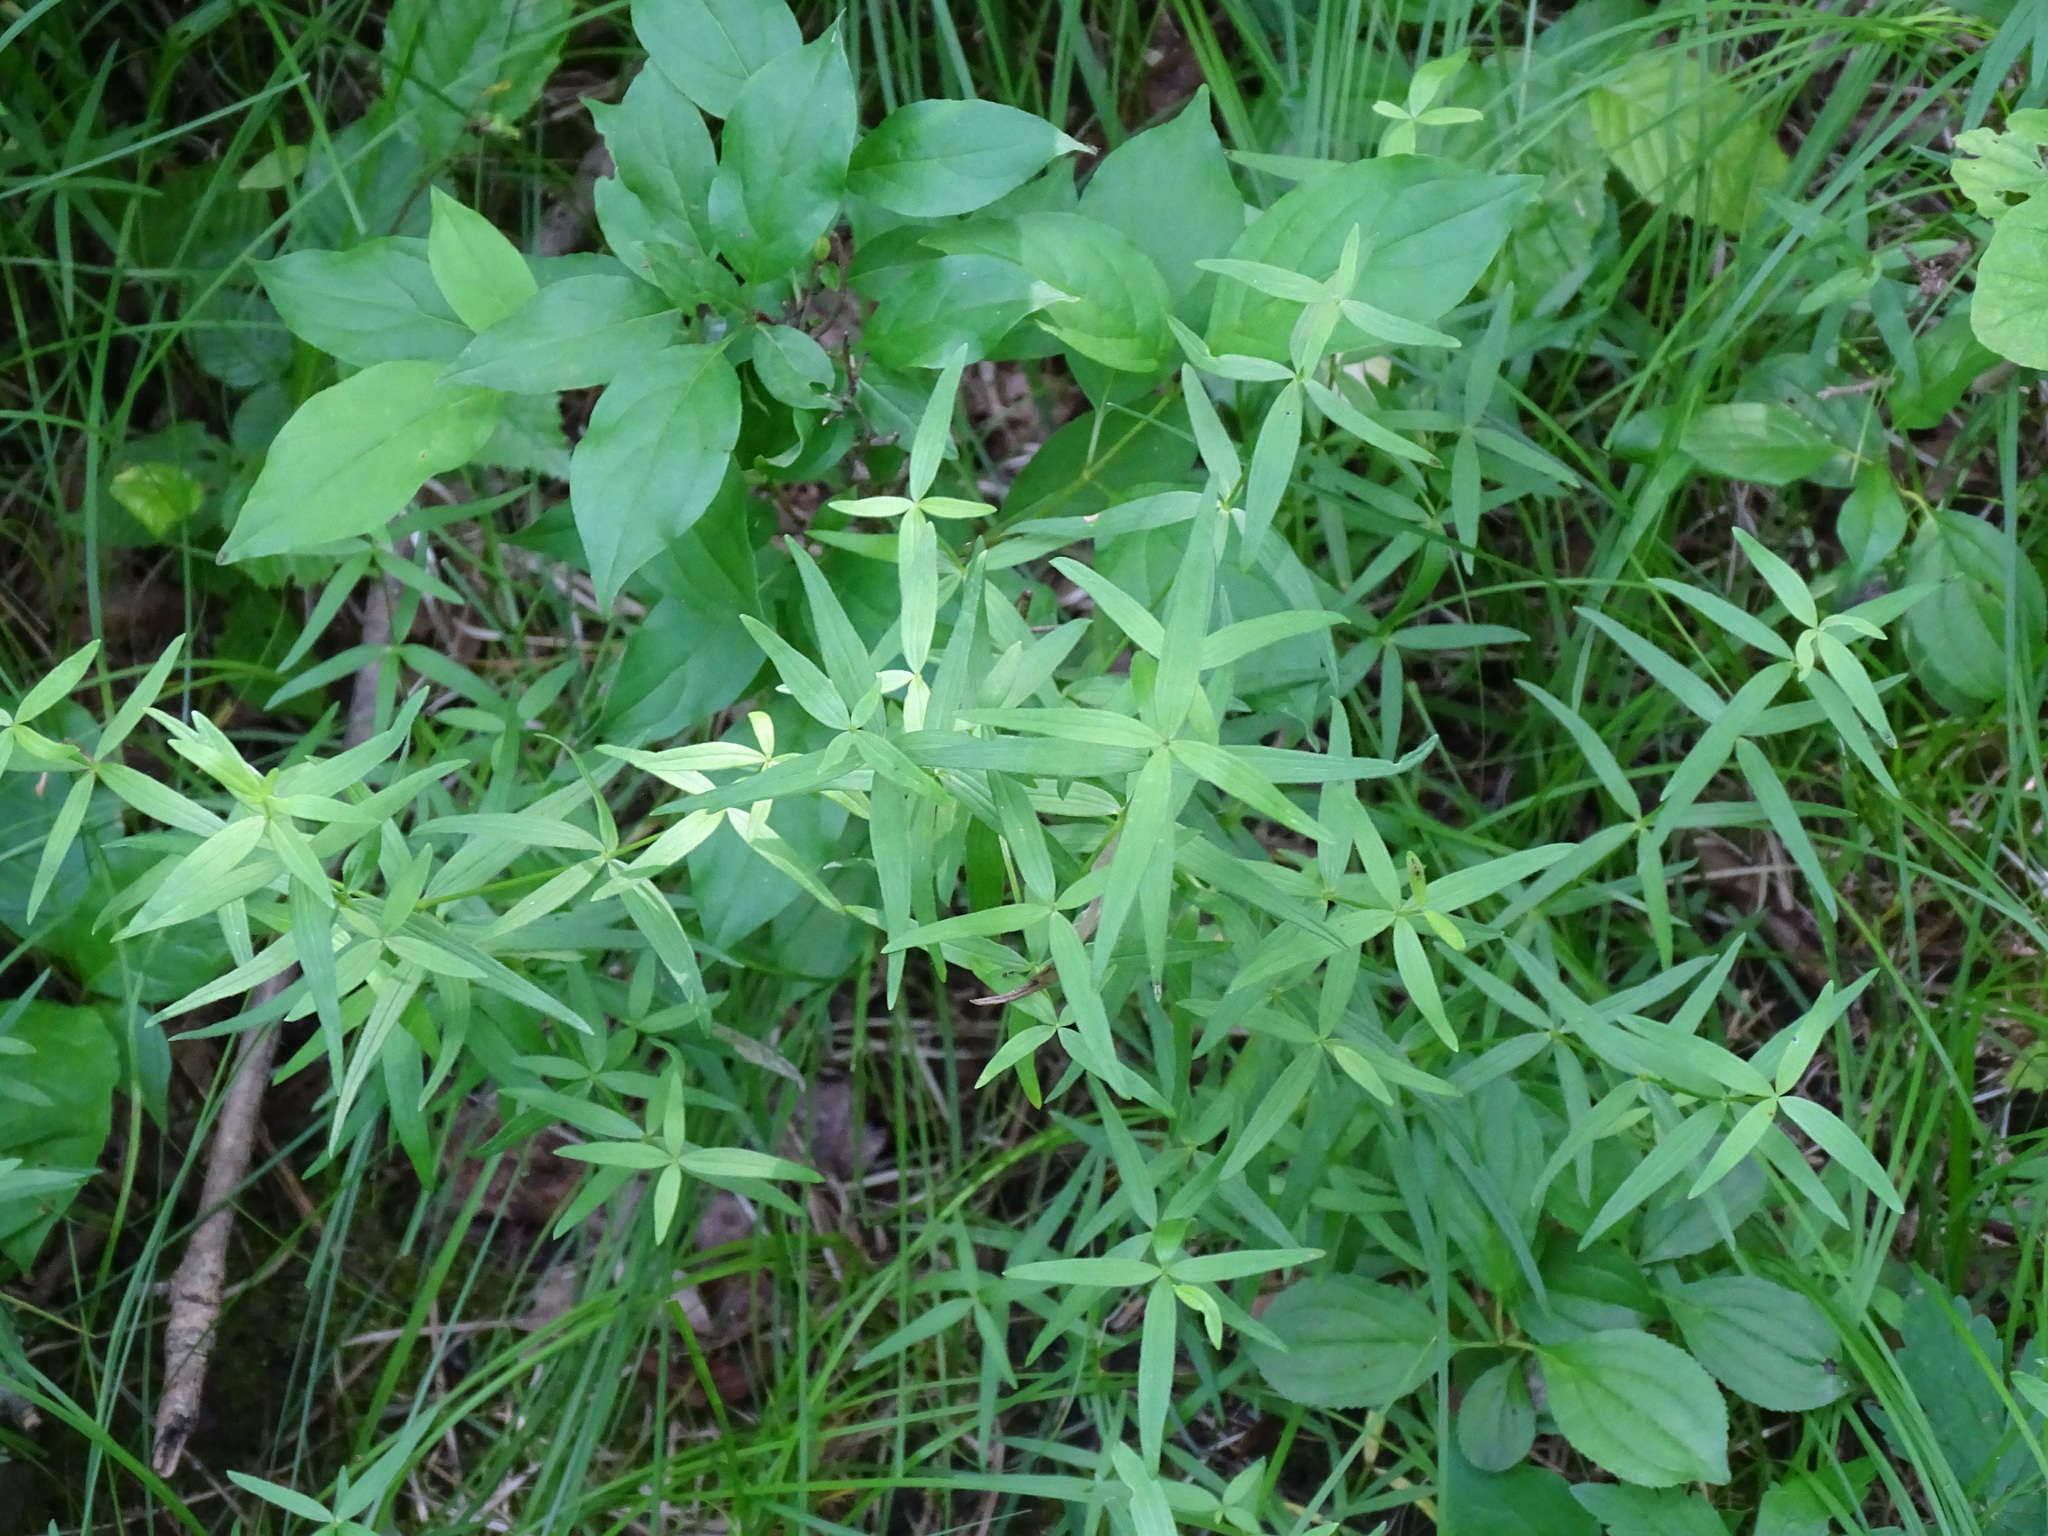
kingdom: Plantae
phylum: Tracheophyta
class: Magnoliopsida
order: Gentianales
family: Rubiaceae
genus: Galium
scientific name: Galium boreale
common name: Northern bedstraw
